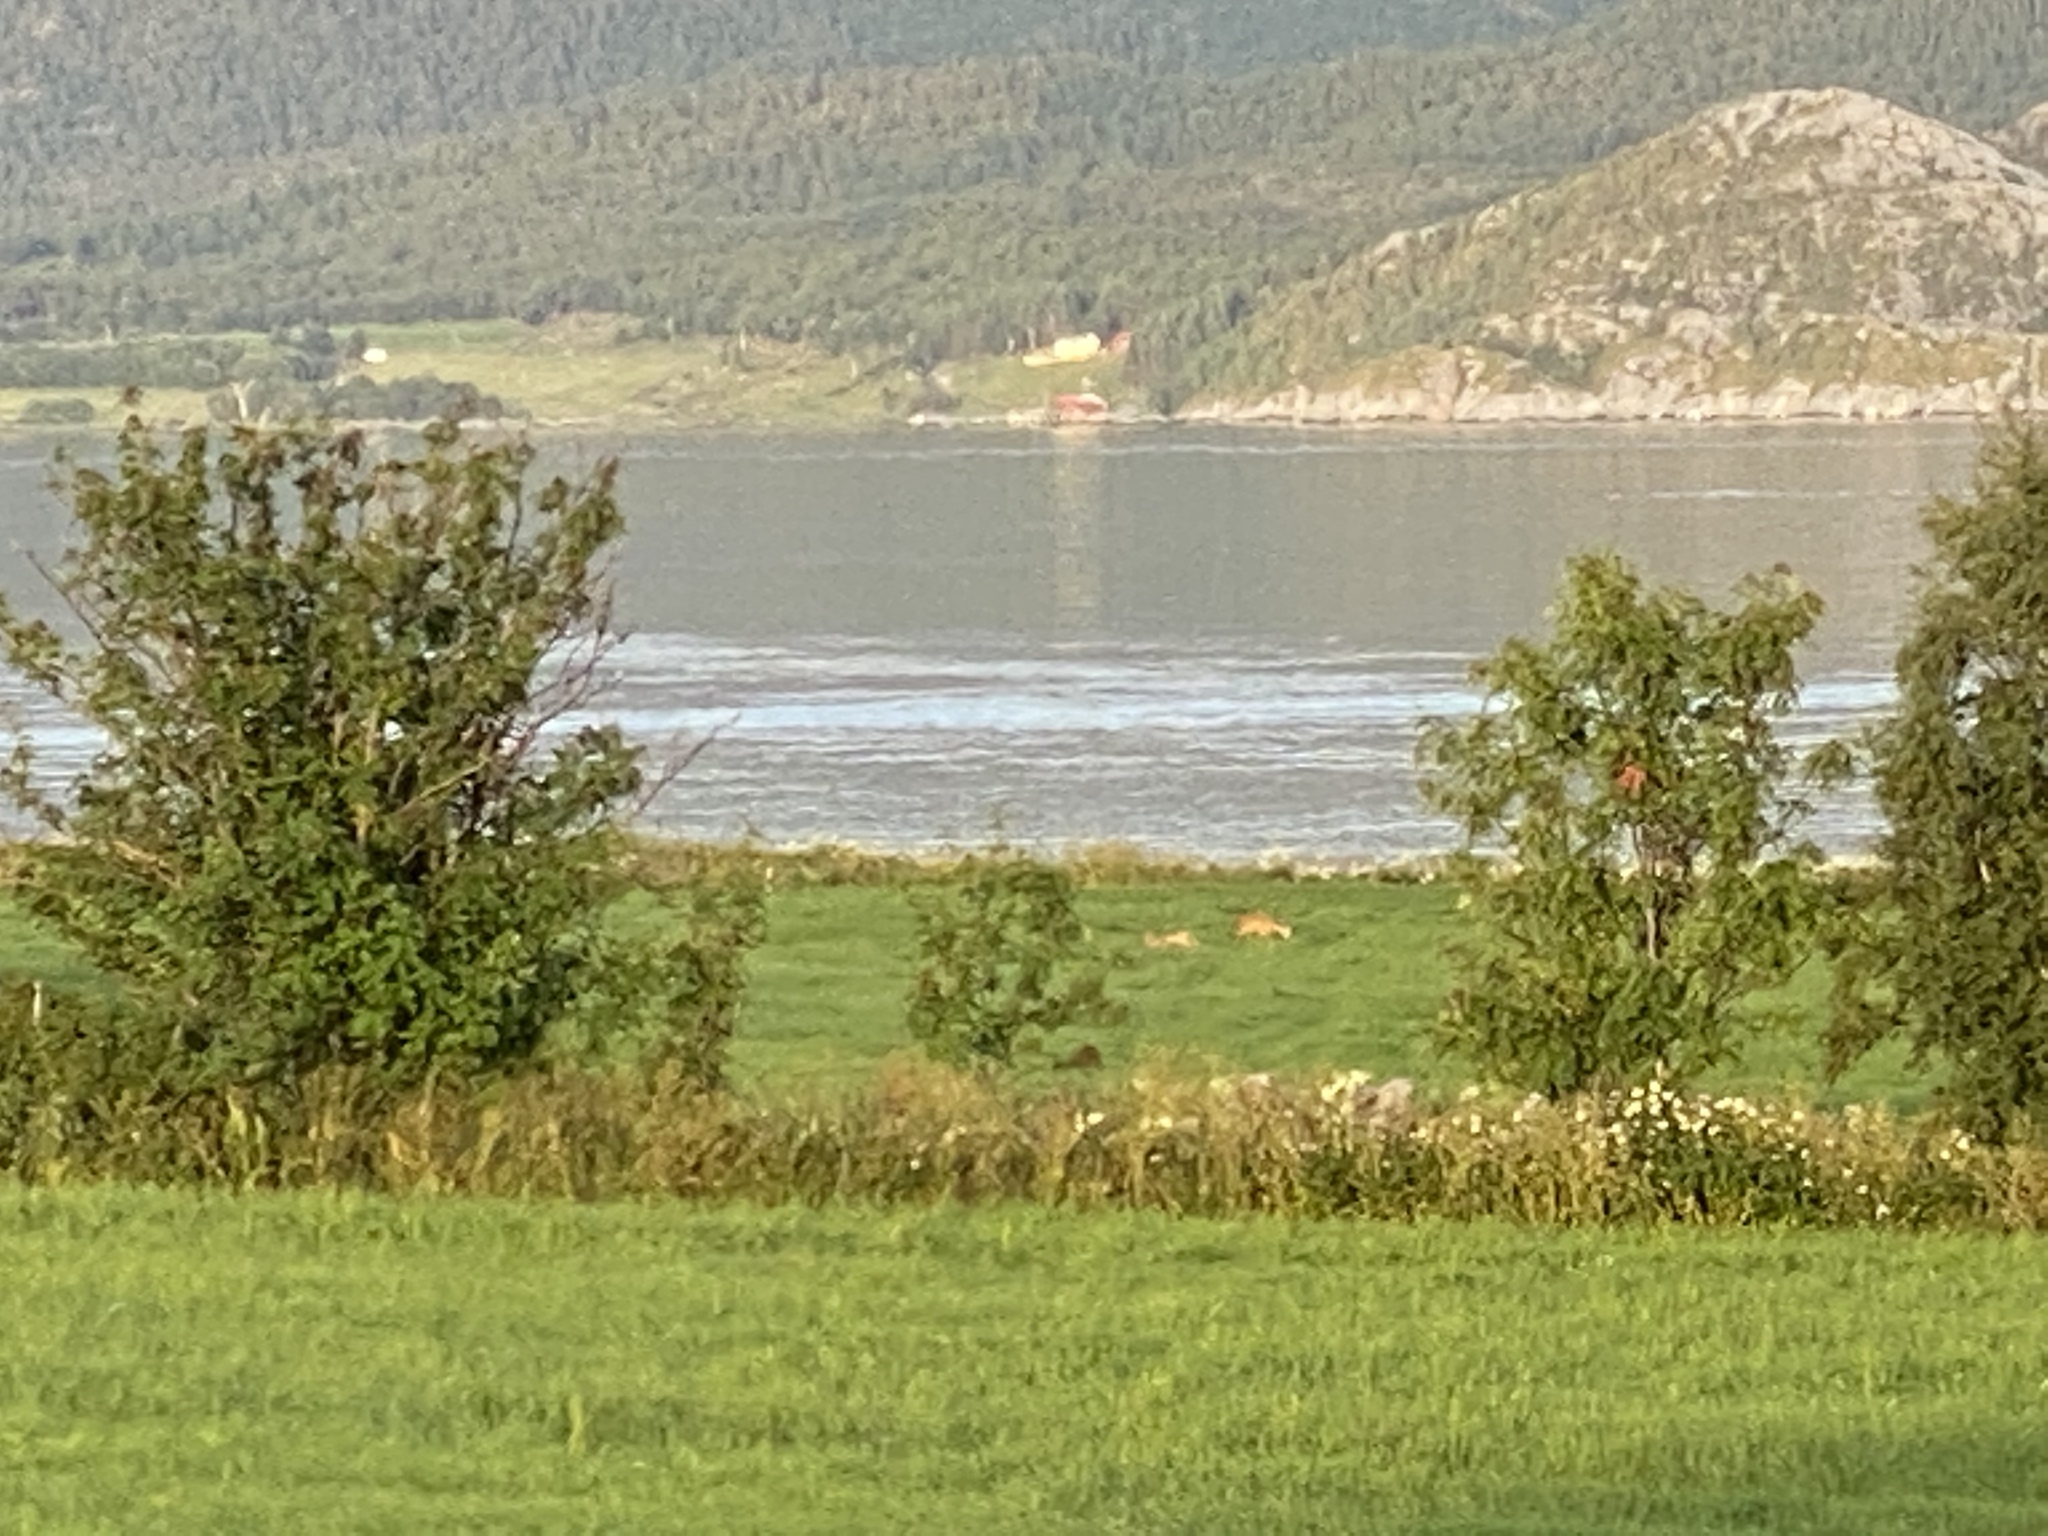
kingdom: Animalia
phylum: Chordata
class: Mammalia
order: Artiodactyla
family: Cervidae
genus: Capreolus
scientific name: Capreolus capreolus
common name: Western roe deer
